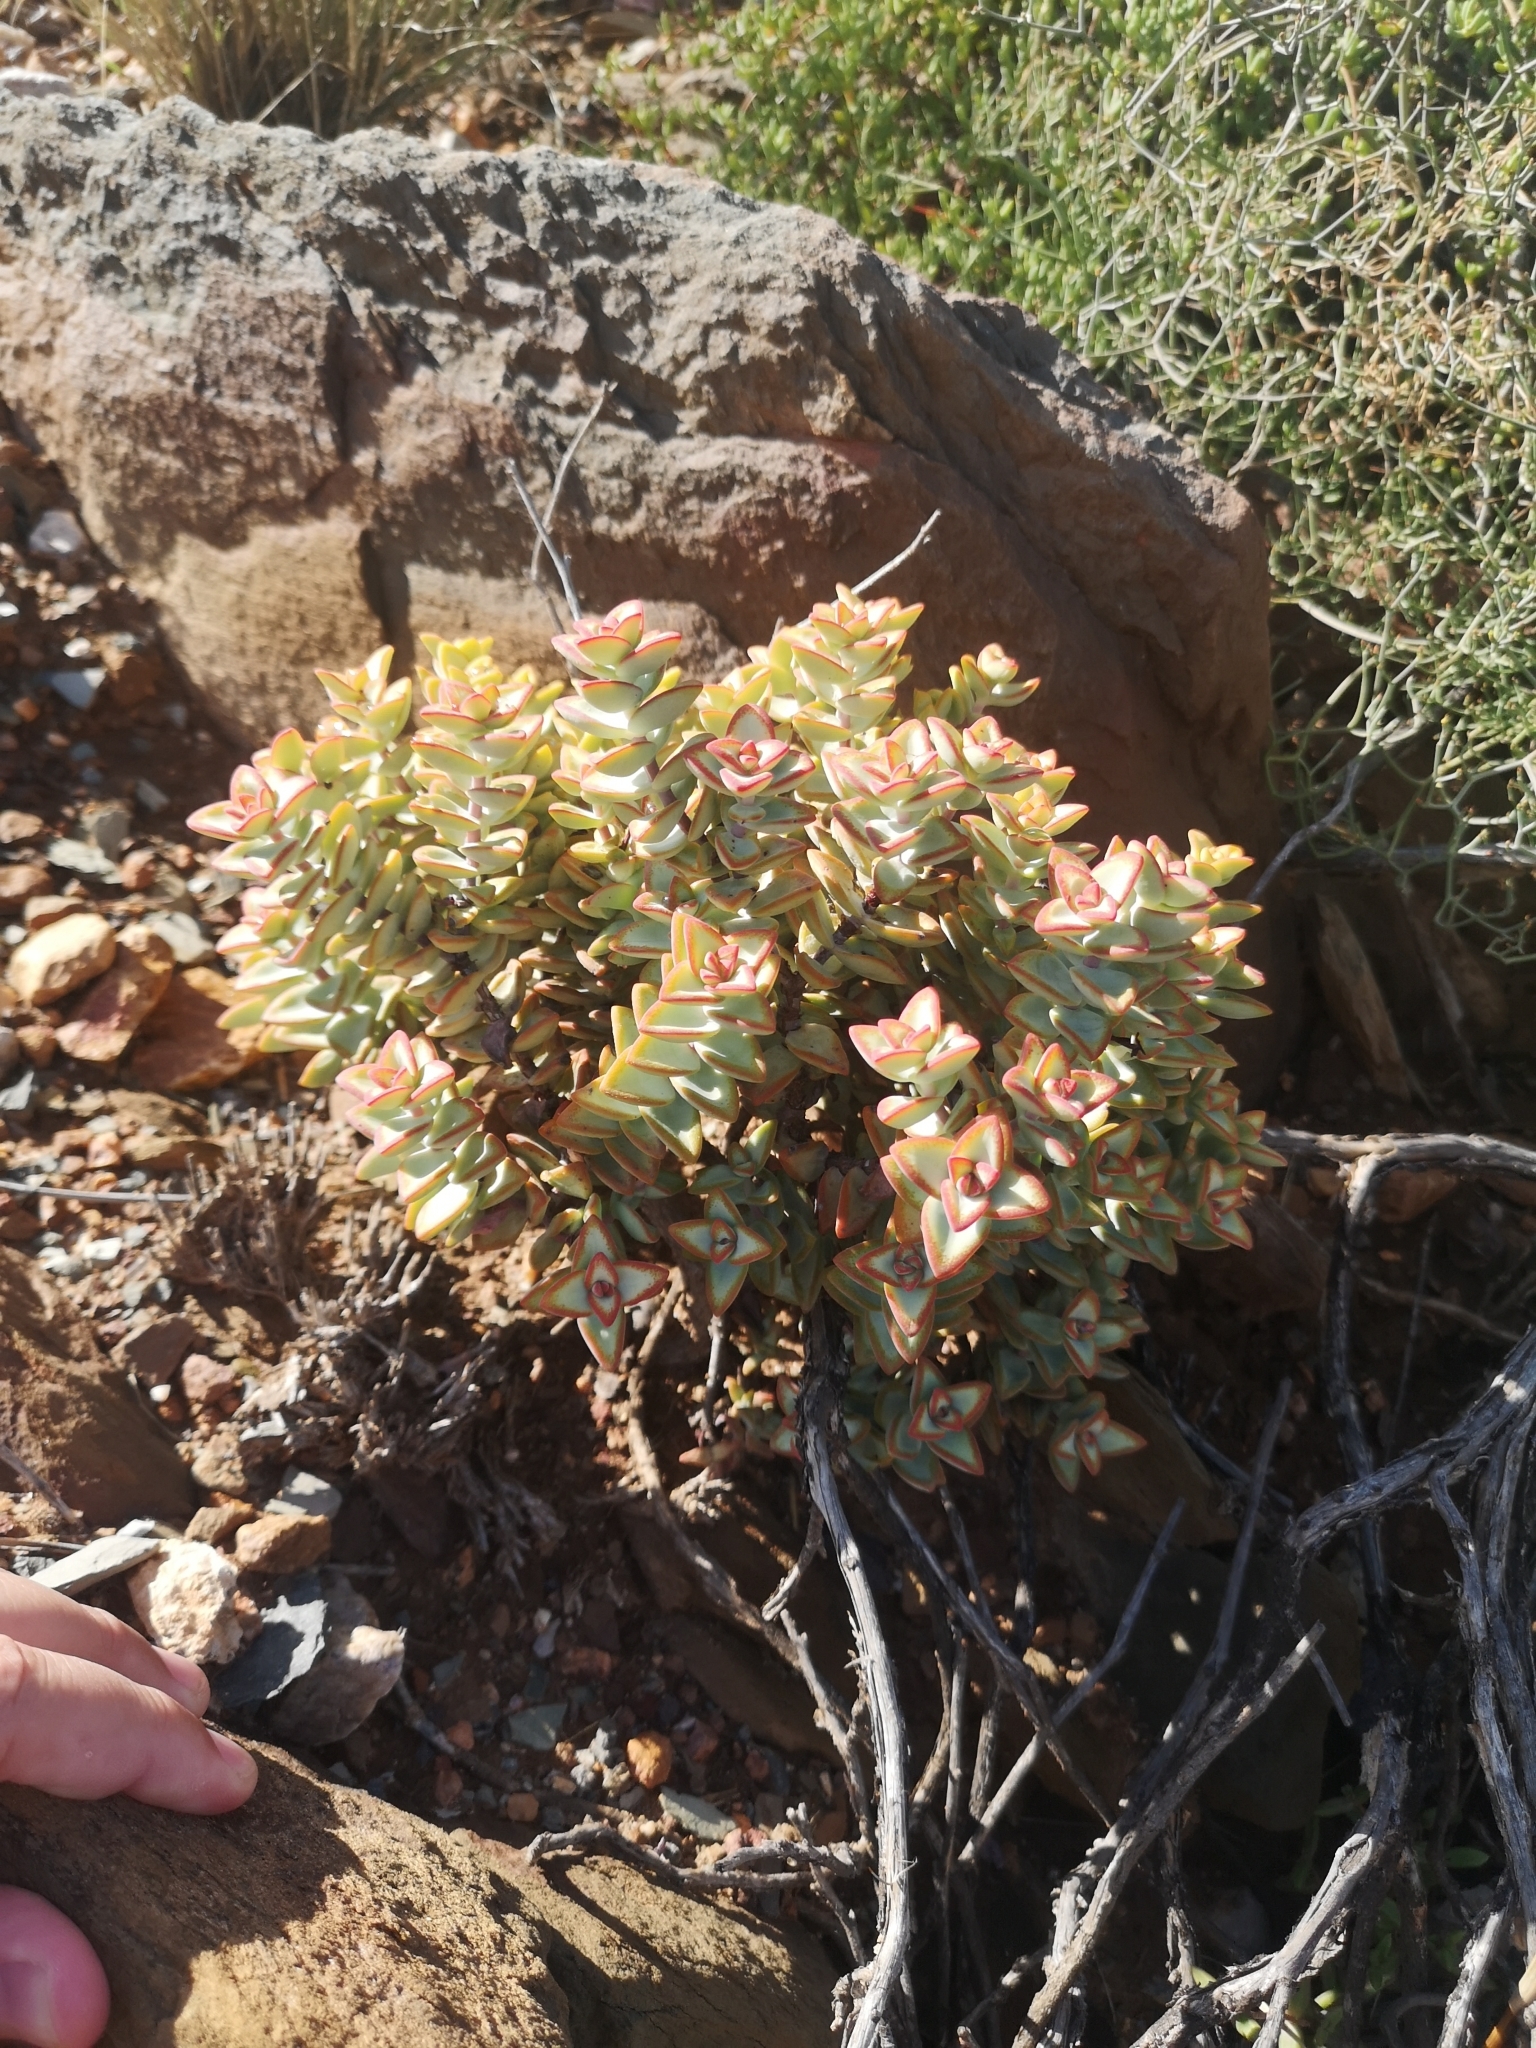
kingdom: Plantae
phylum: Tracheophyta
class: Magnoliopsida
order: Saxifragales
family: Crassulaceae
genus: Crassula
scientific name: Crassula rupestris
